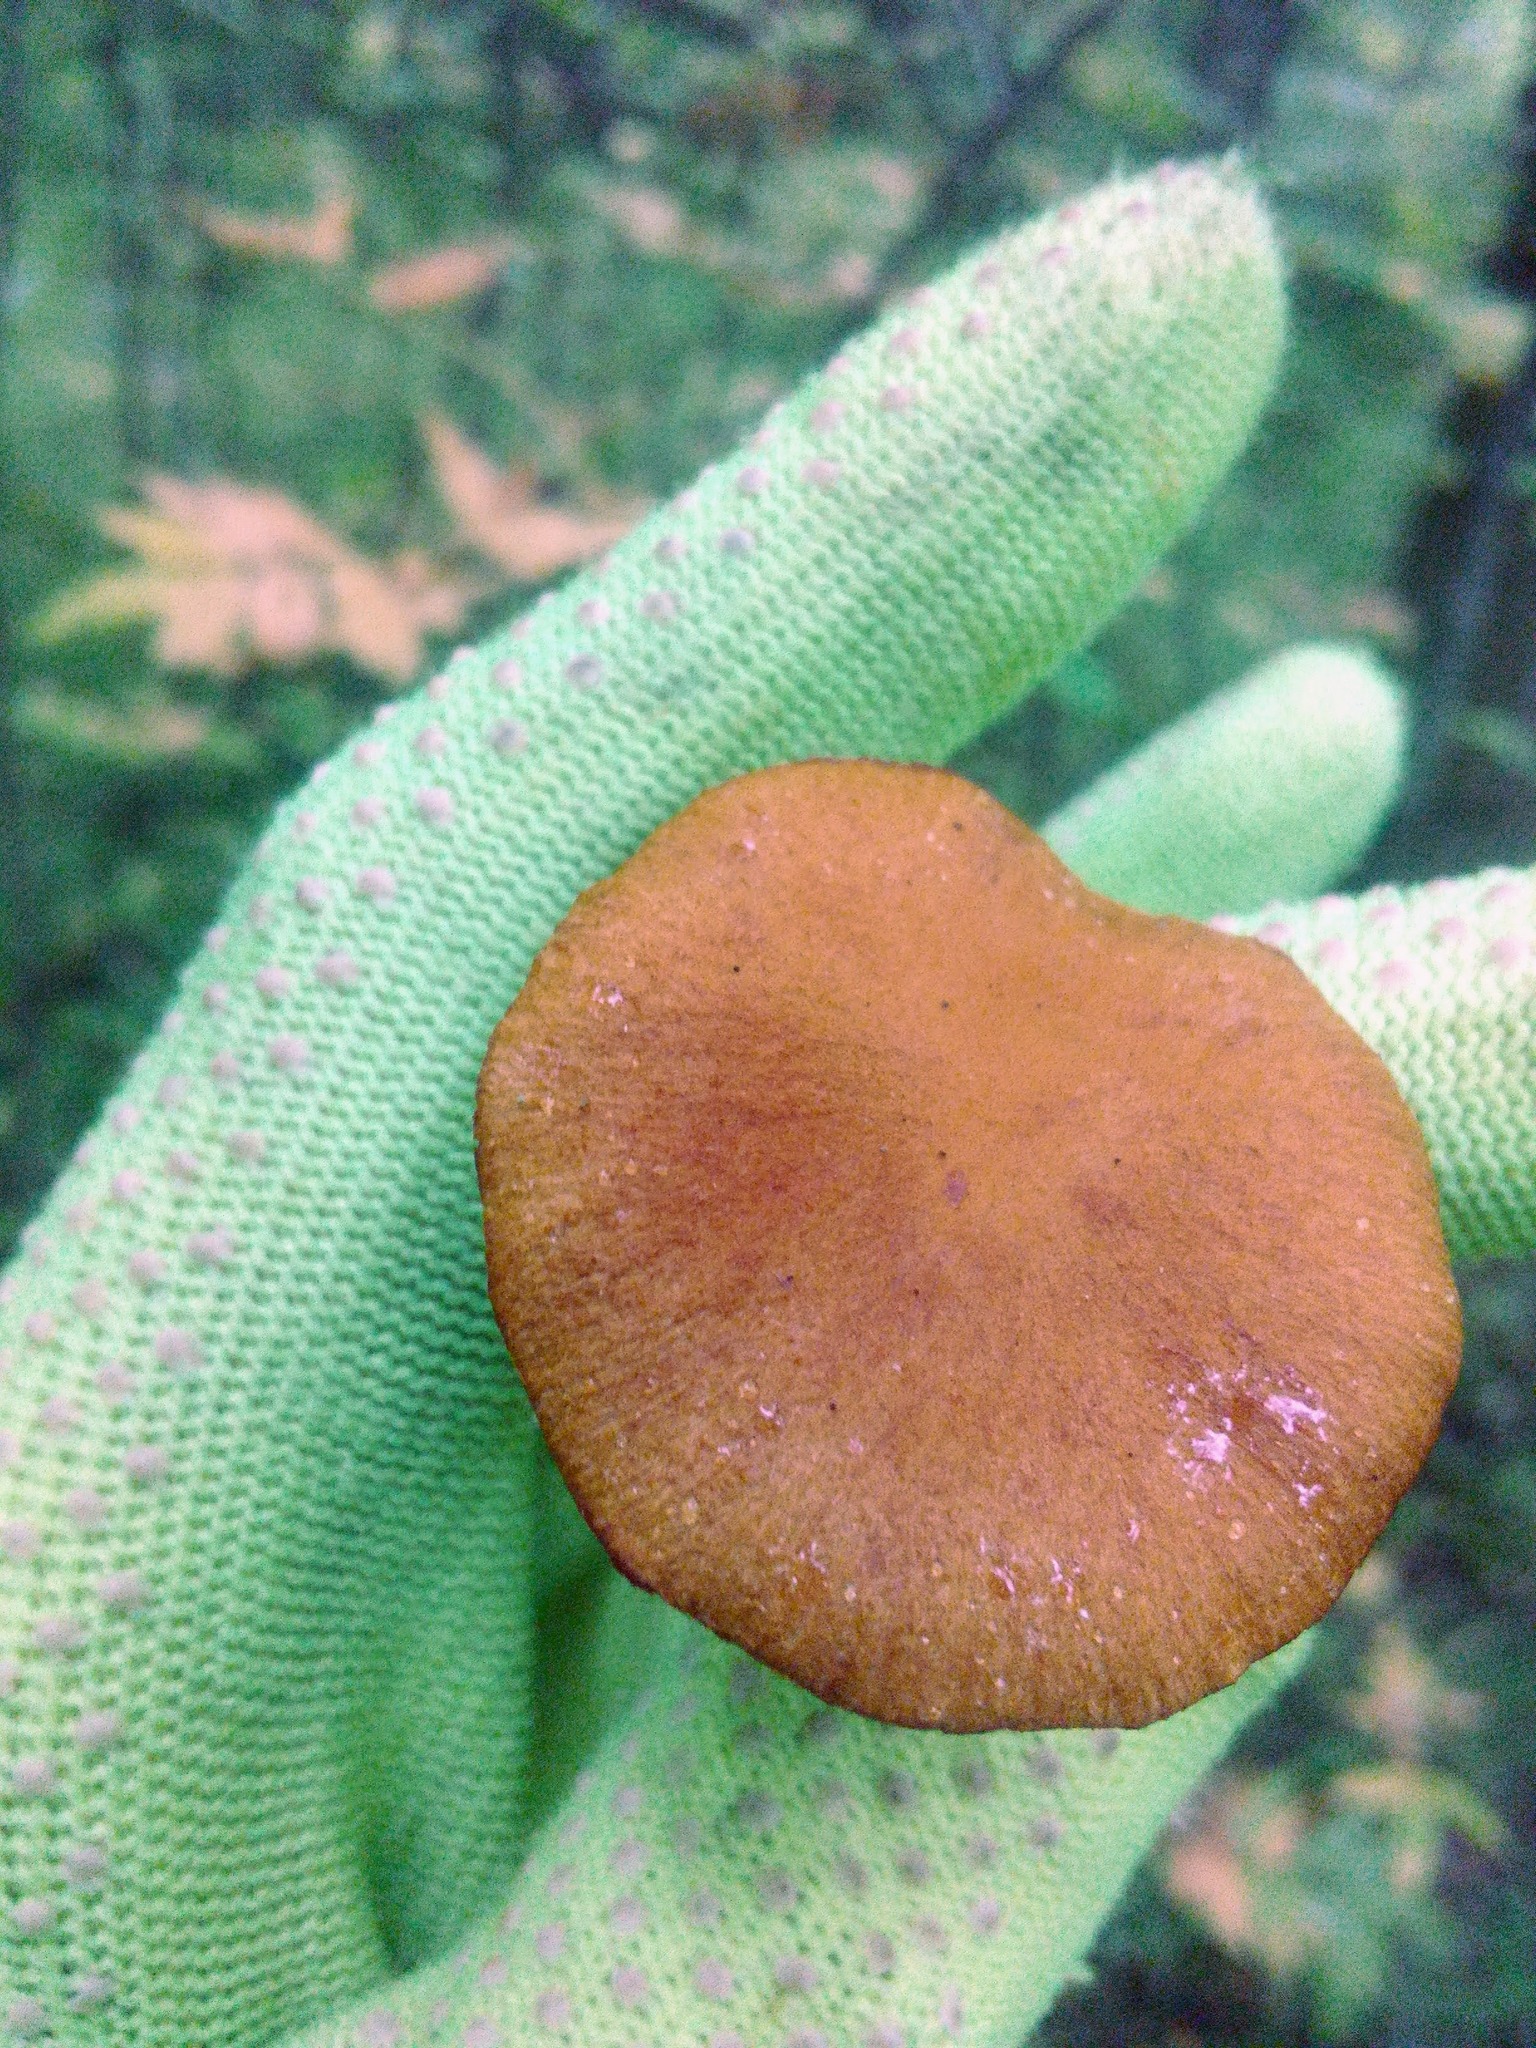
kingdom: Fungi
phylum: Basidiomycota
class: Agaricomycetes
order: Agaricales
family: Cortinariaceae
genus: Cortinarius
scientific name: Cortinarius semisanguineus
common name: Surprise webcap
